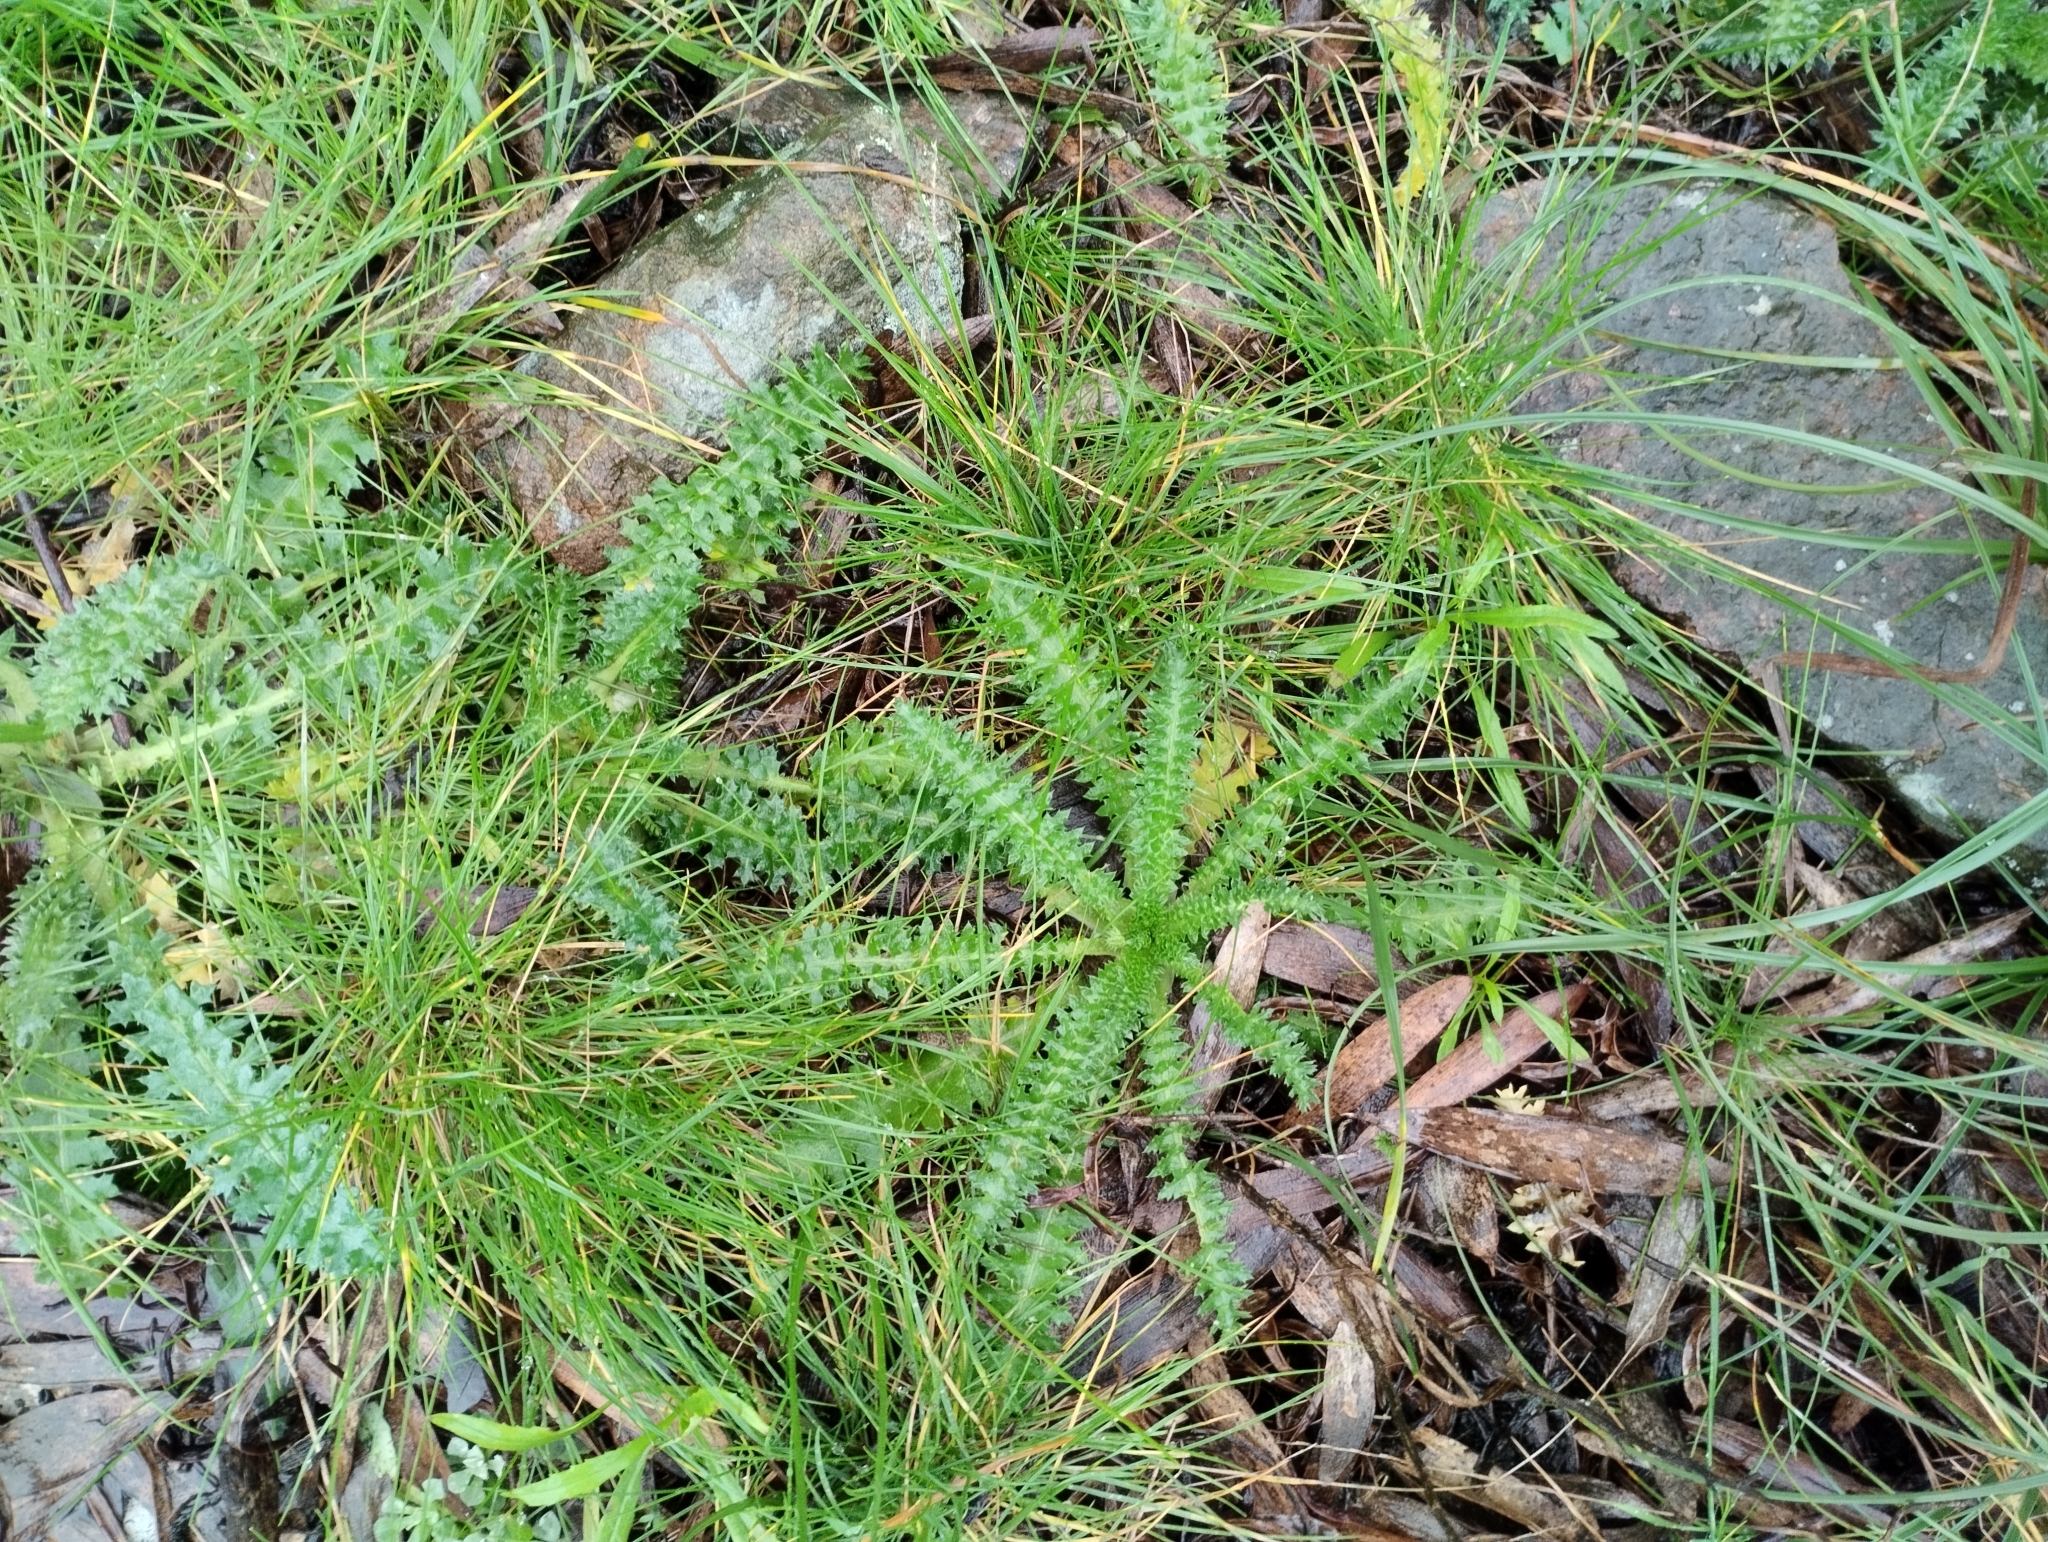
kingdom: Plantae
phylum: Tracheophyta
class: Magnoliopsida
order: Asterales
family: Asteraceae
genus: Perezia
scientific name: Perezia multiflora
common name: Perezia
